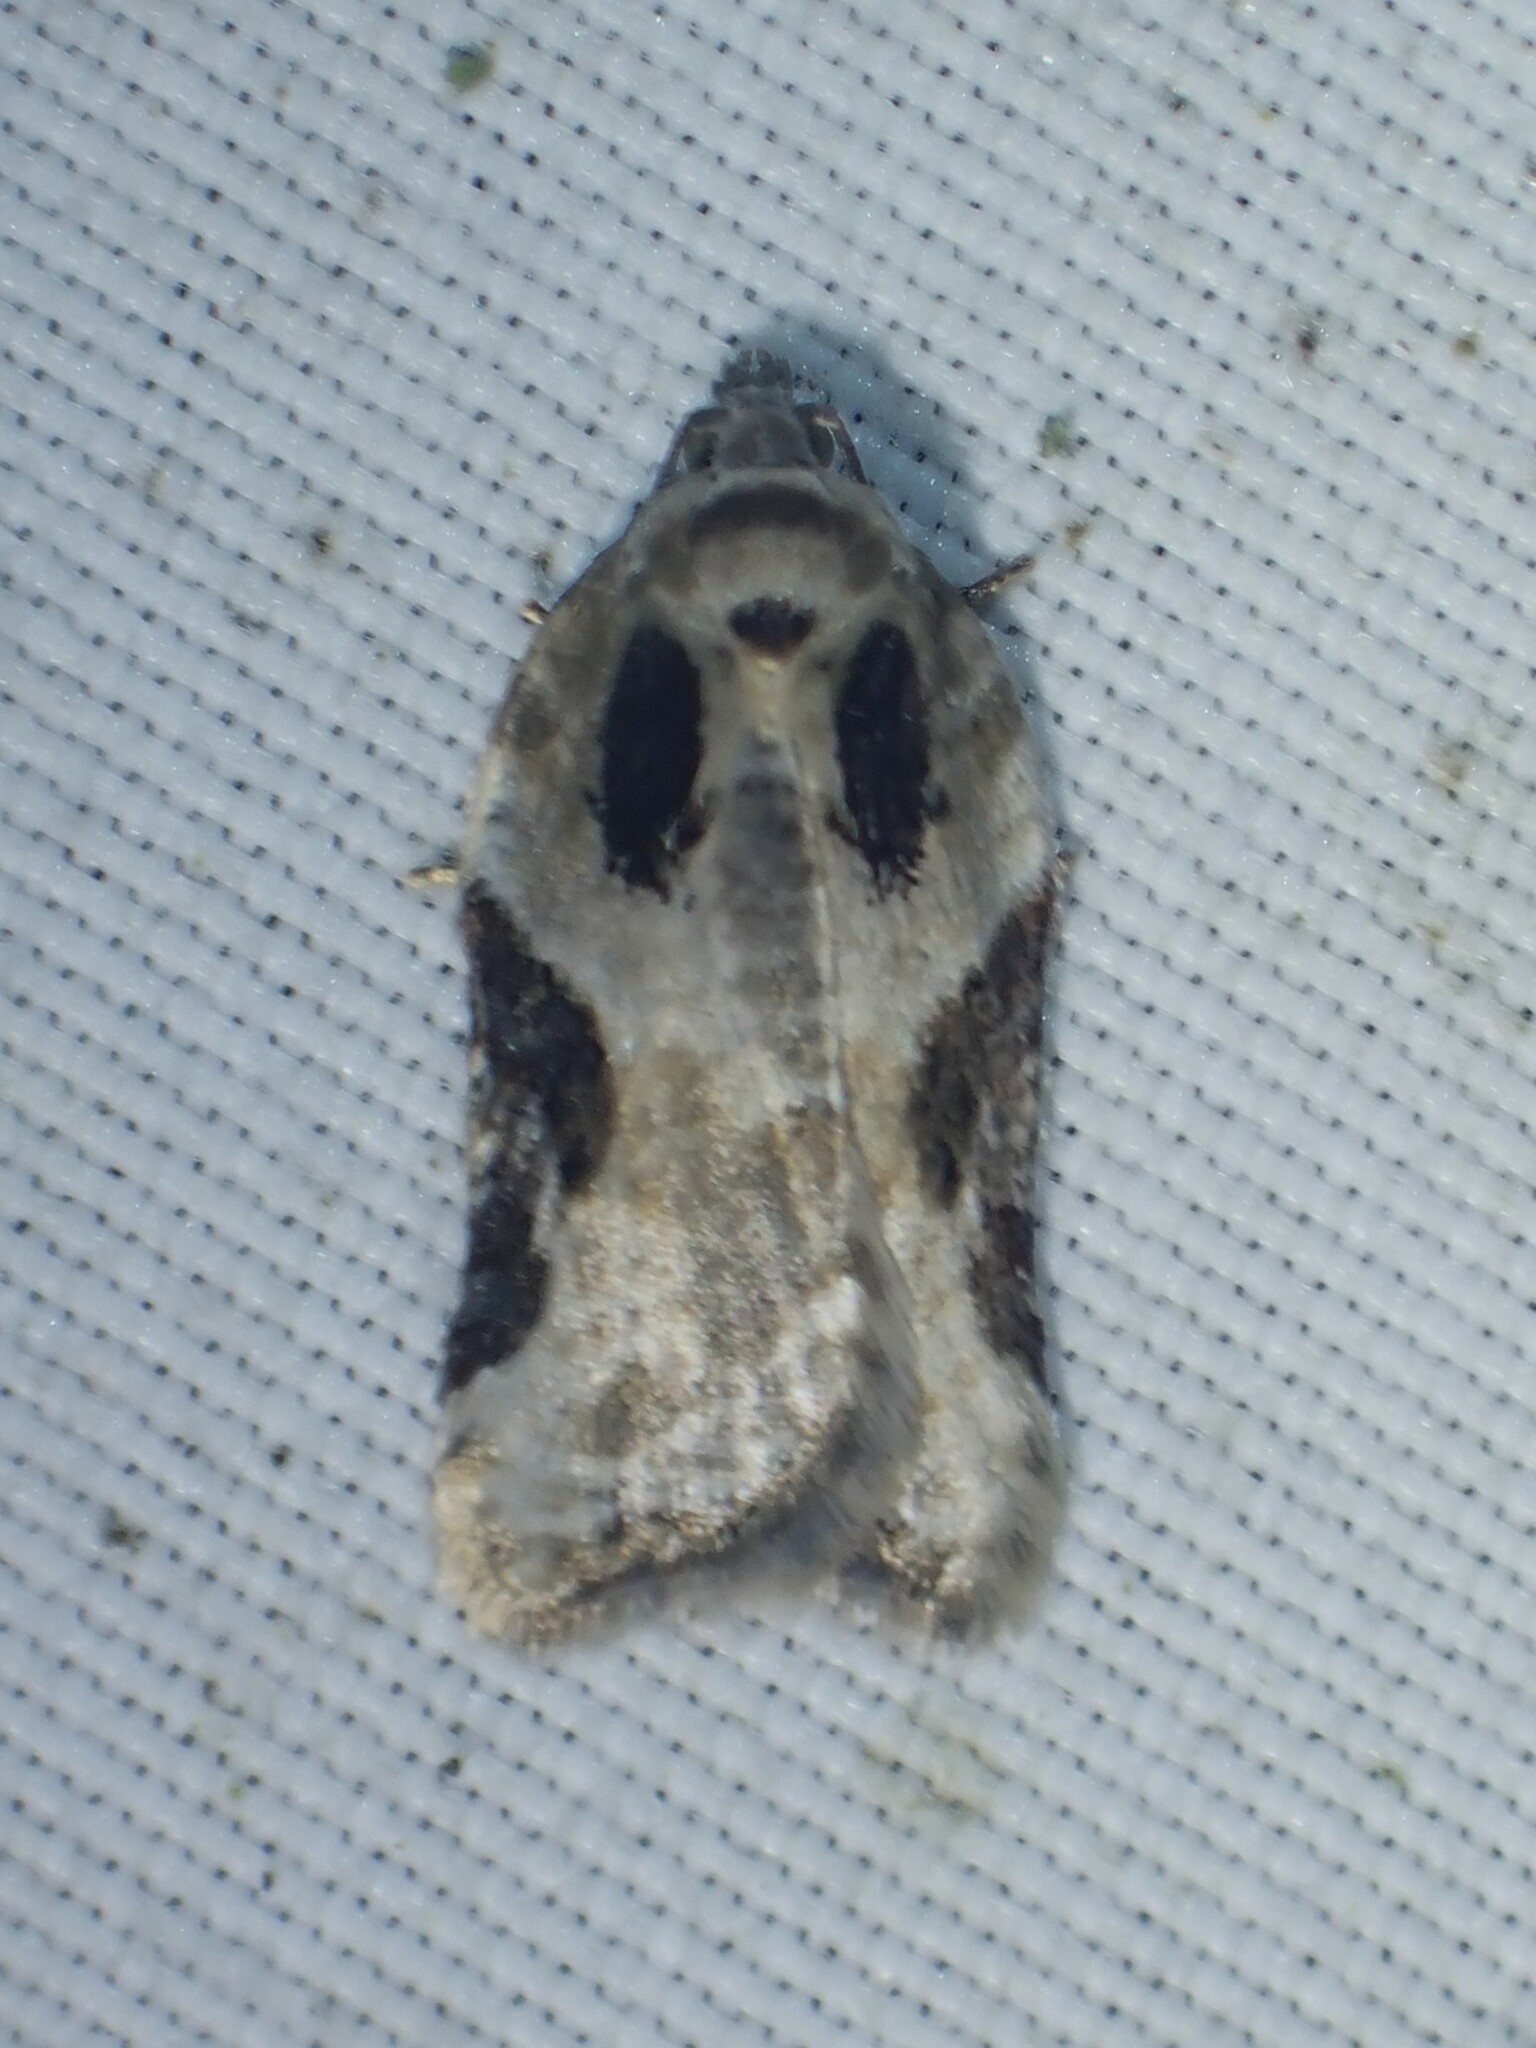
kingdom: Animalia
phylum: Arthropoda
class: Insecta
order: Lepidoptera
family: Tortricidae
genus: Acleris
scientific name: Acleris forbesana
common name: Forbes' acleris moth
